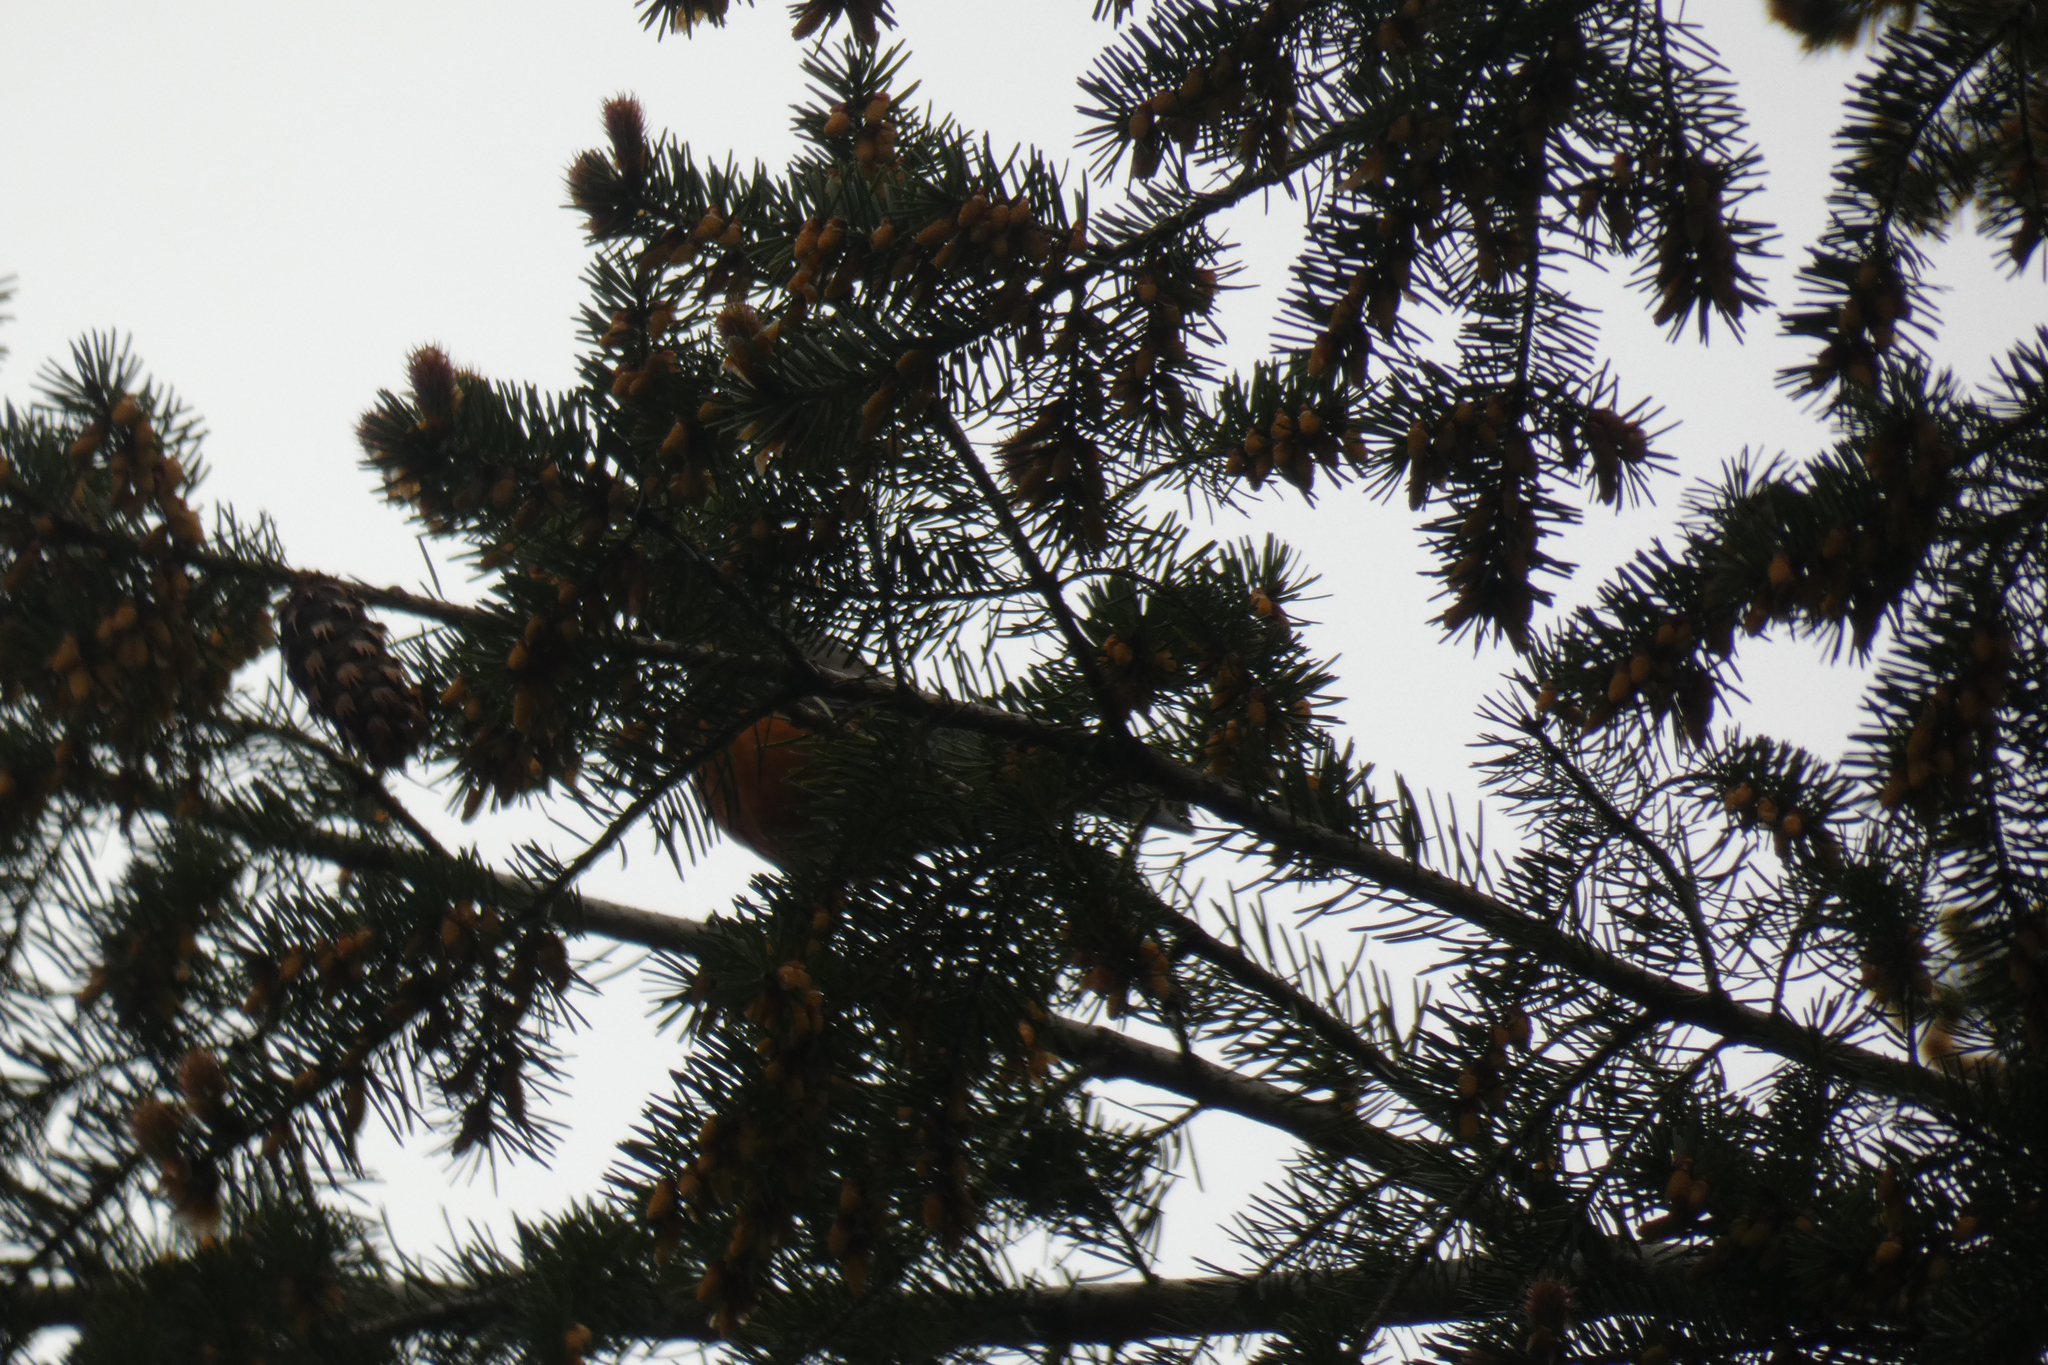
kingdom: Animalia
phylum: Chordata
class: Aves
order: Passeriformes
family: Turdidae
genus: Turdus
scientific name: Turdus migratorius
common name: American robin
